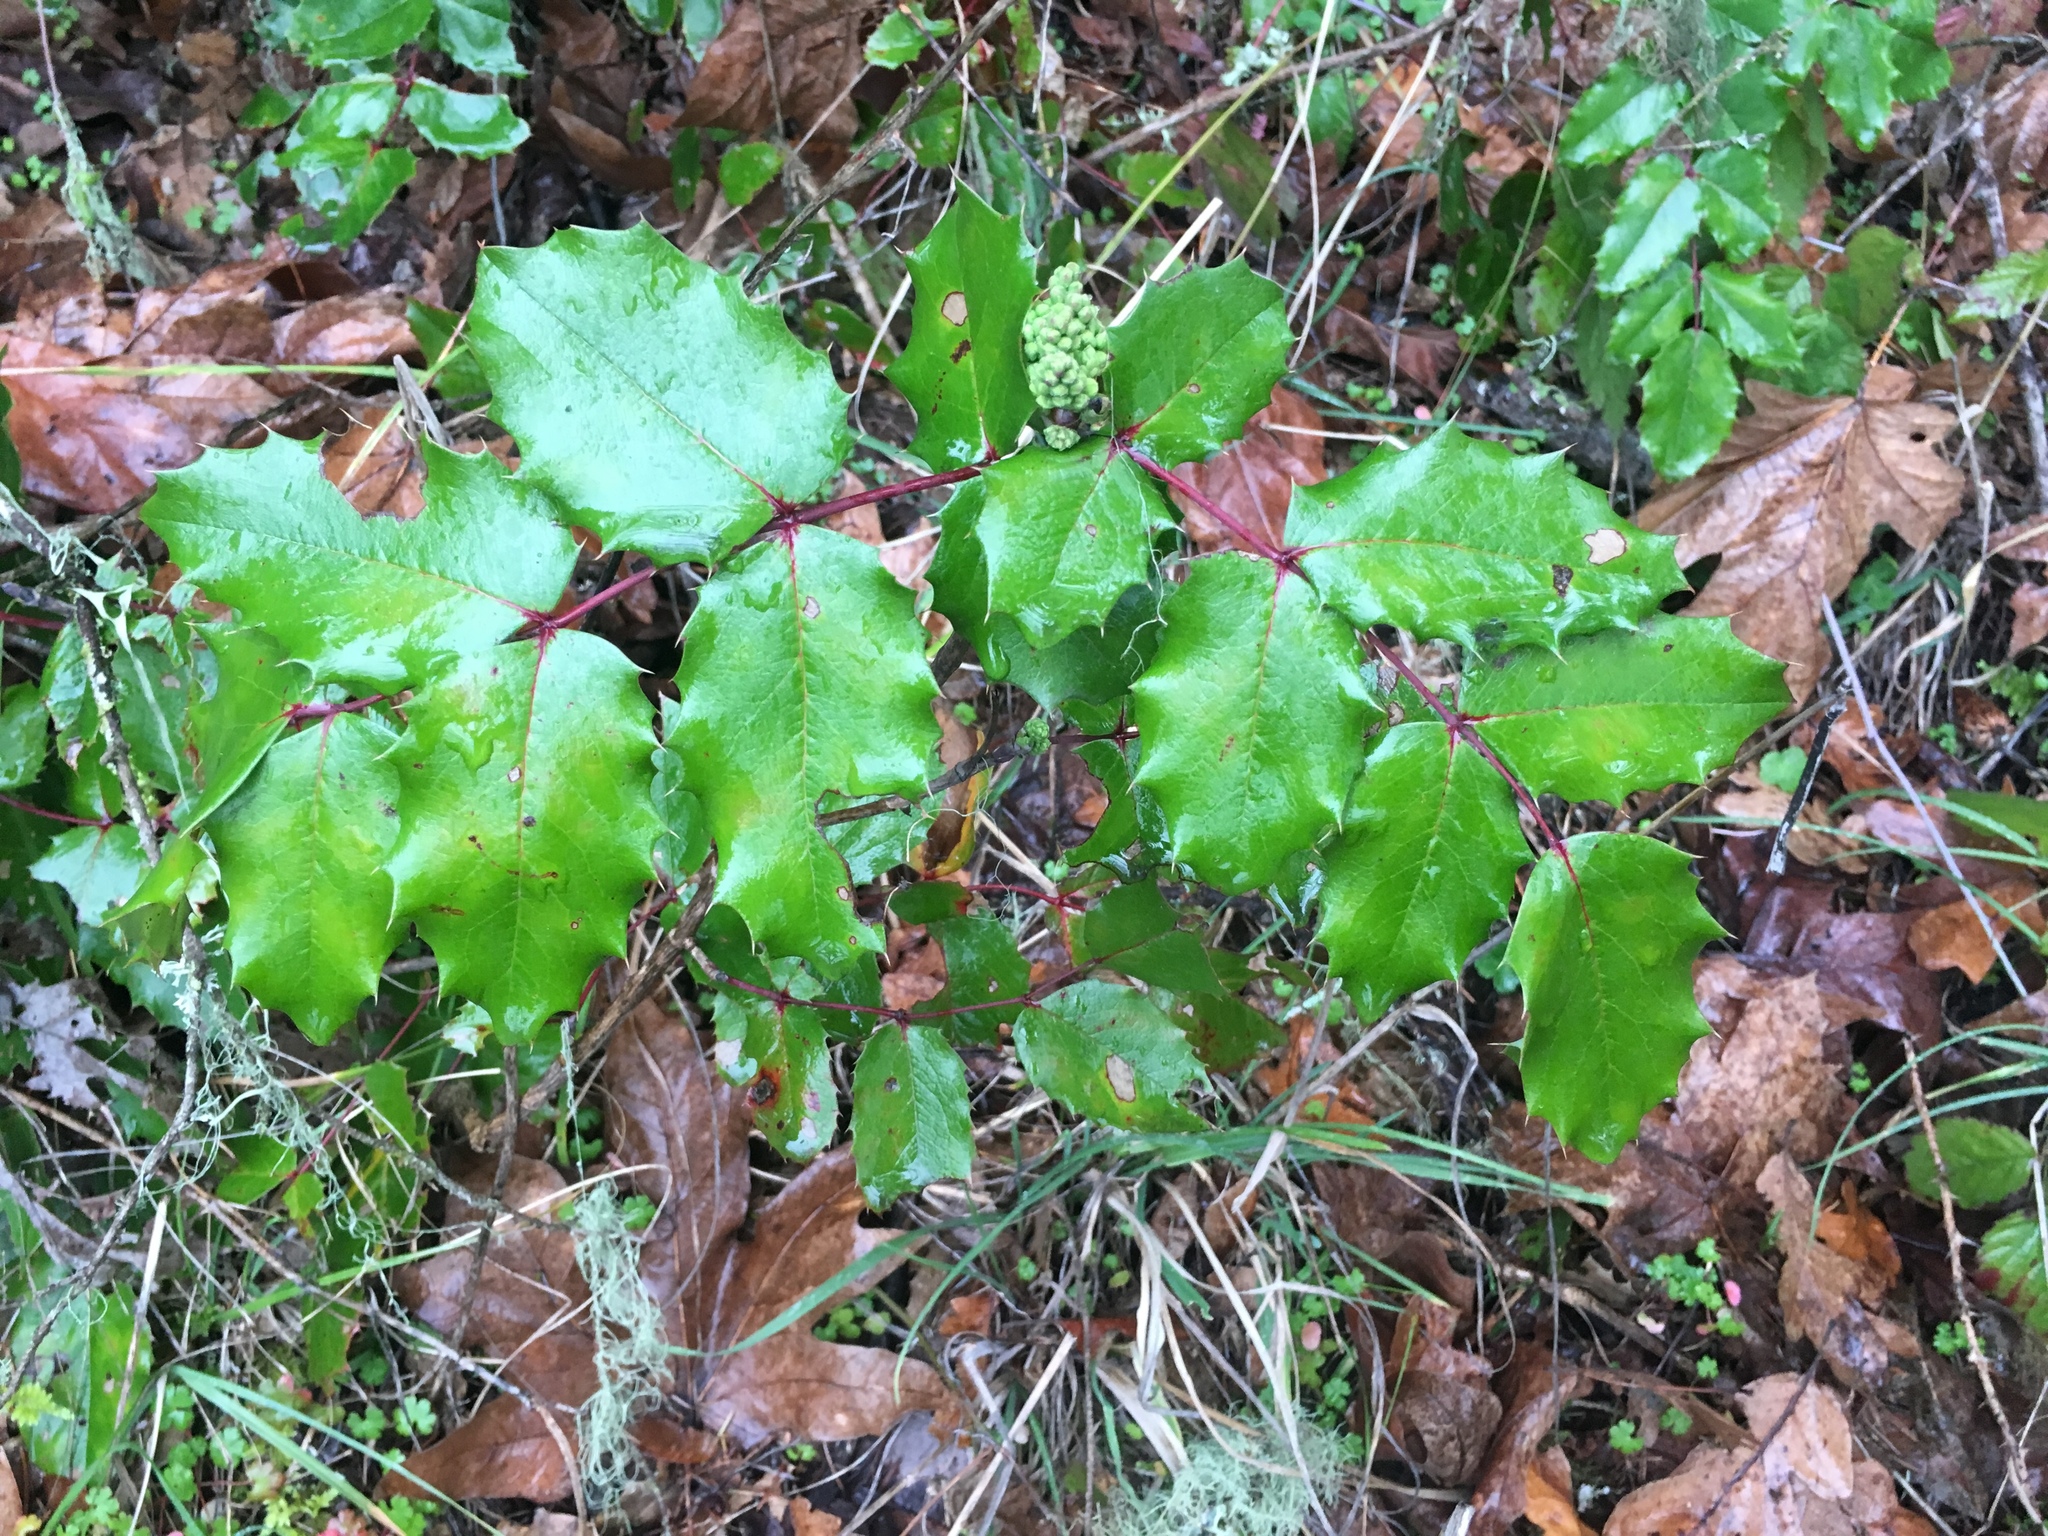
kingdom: Plantae
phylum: Tracheophyta
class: Magnoliopsida
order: Ranunculales
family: Berberidaceae
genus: Mahonia
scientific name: Mahonia aquifolium
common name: Oregon-grape
